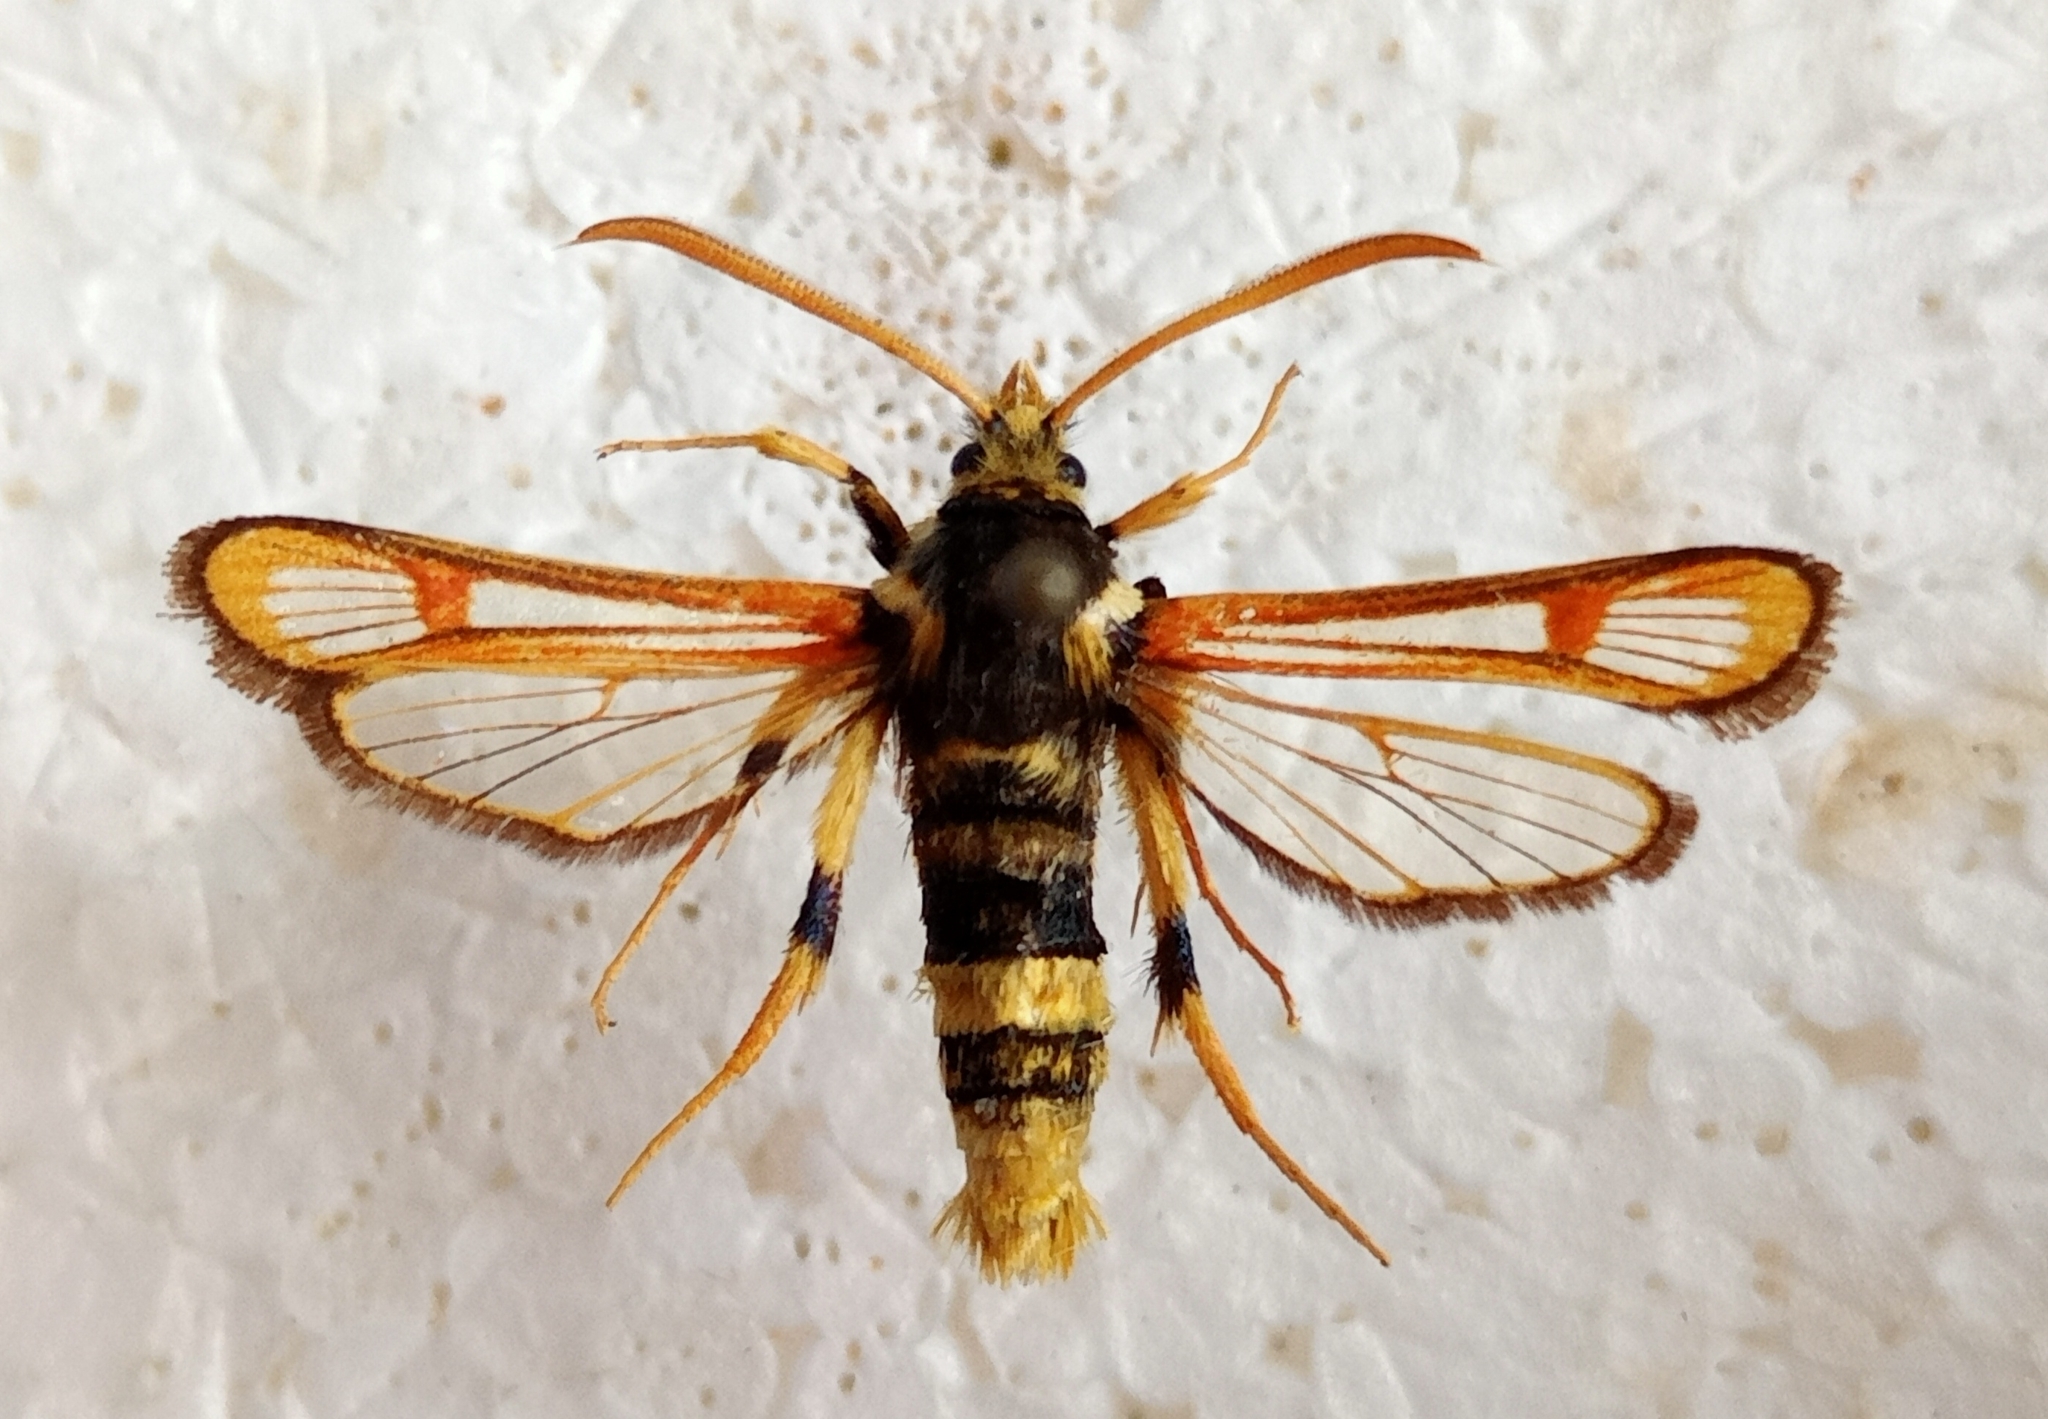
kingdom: Animalia
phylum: Arthropoda
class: Insecta
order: Lepidoptera
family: Sesiidae
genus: Bembecia
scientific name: Bembecia transcaucasicum
